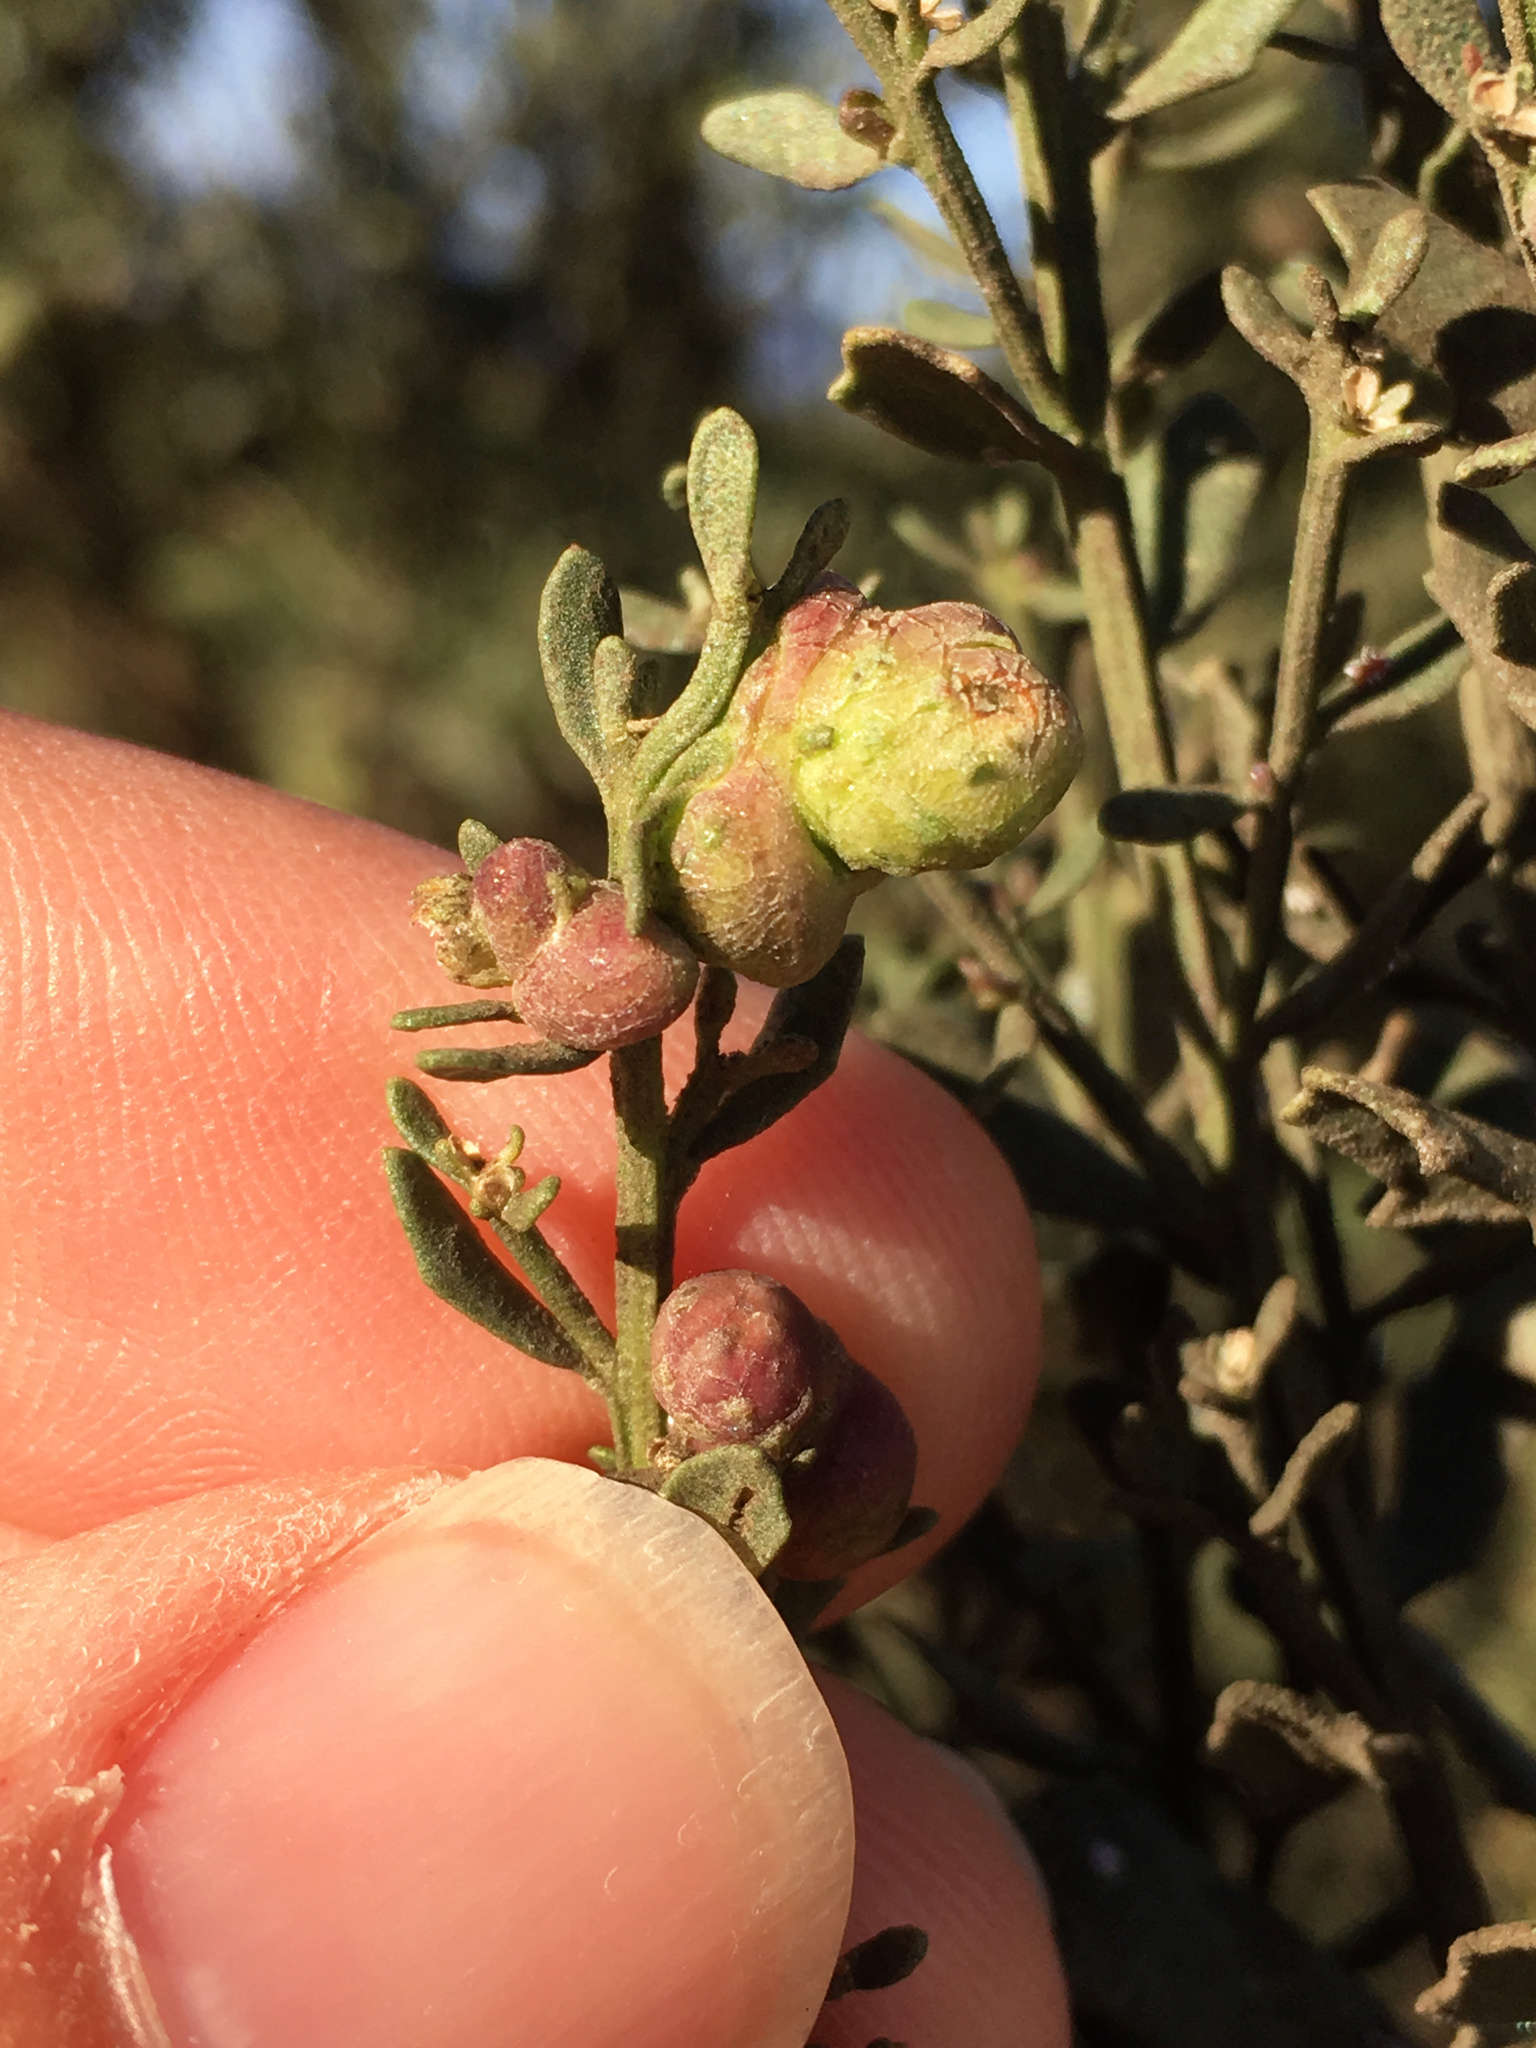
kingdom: Animalia
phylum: Arthropoda
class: Insecta
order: Diptera
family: Cecidomyiidae
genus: Rhopalomyia
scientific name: Rhopalomyia californica
